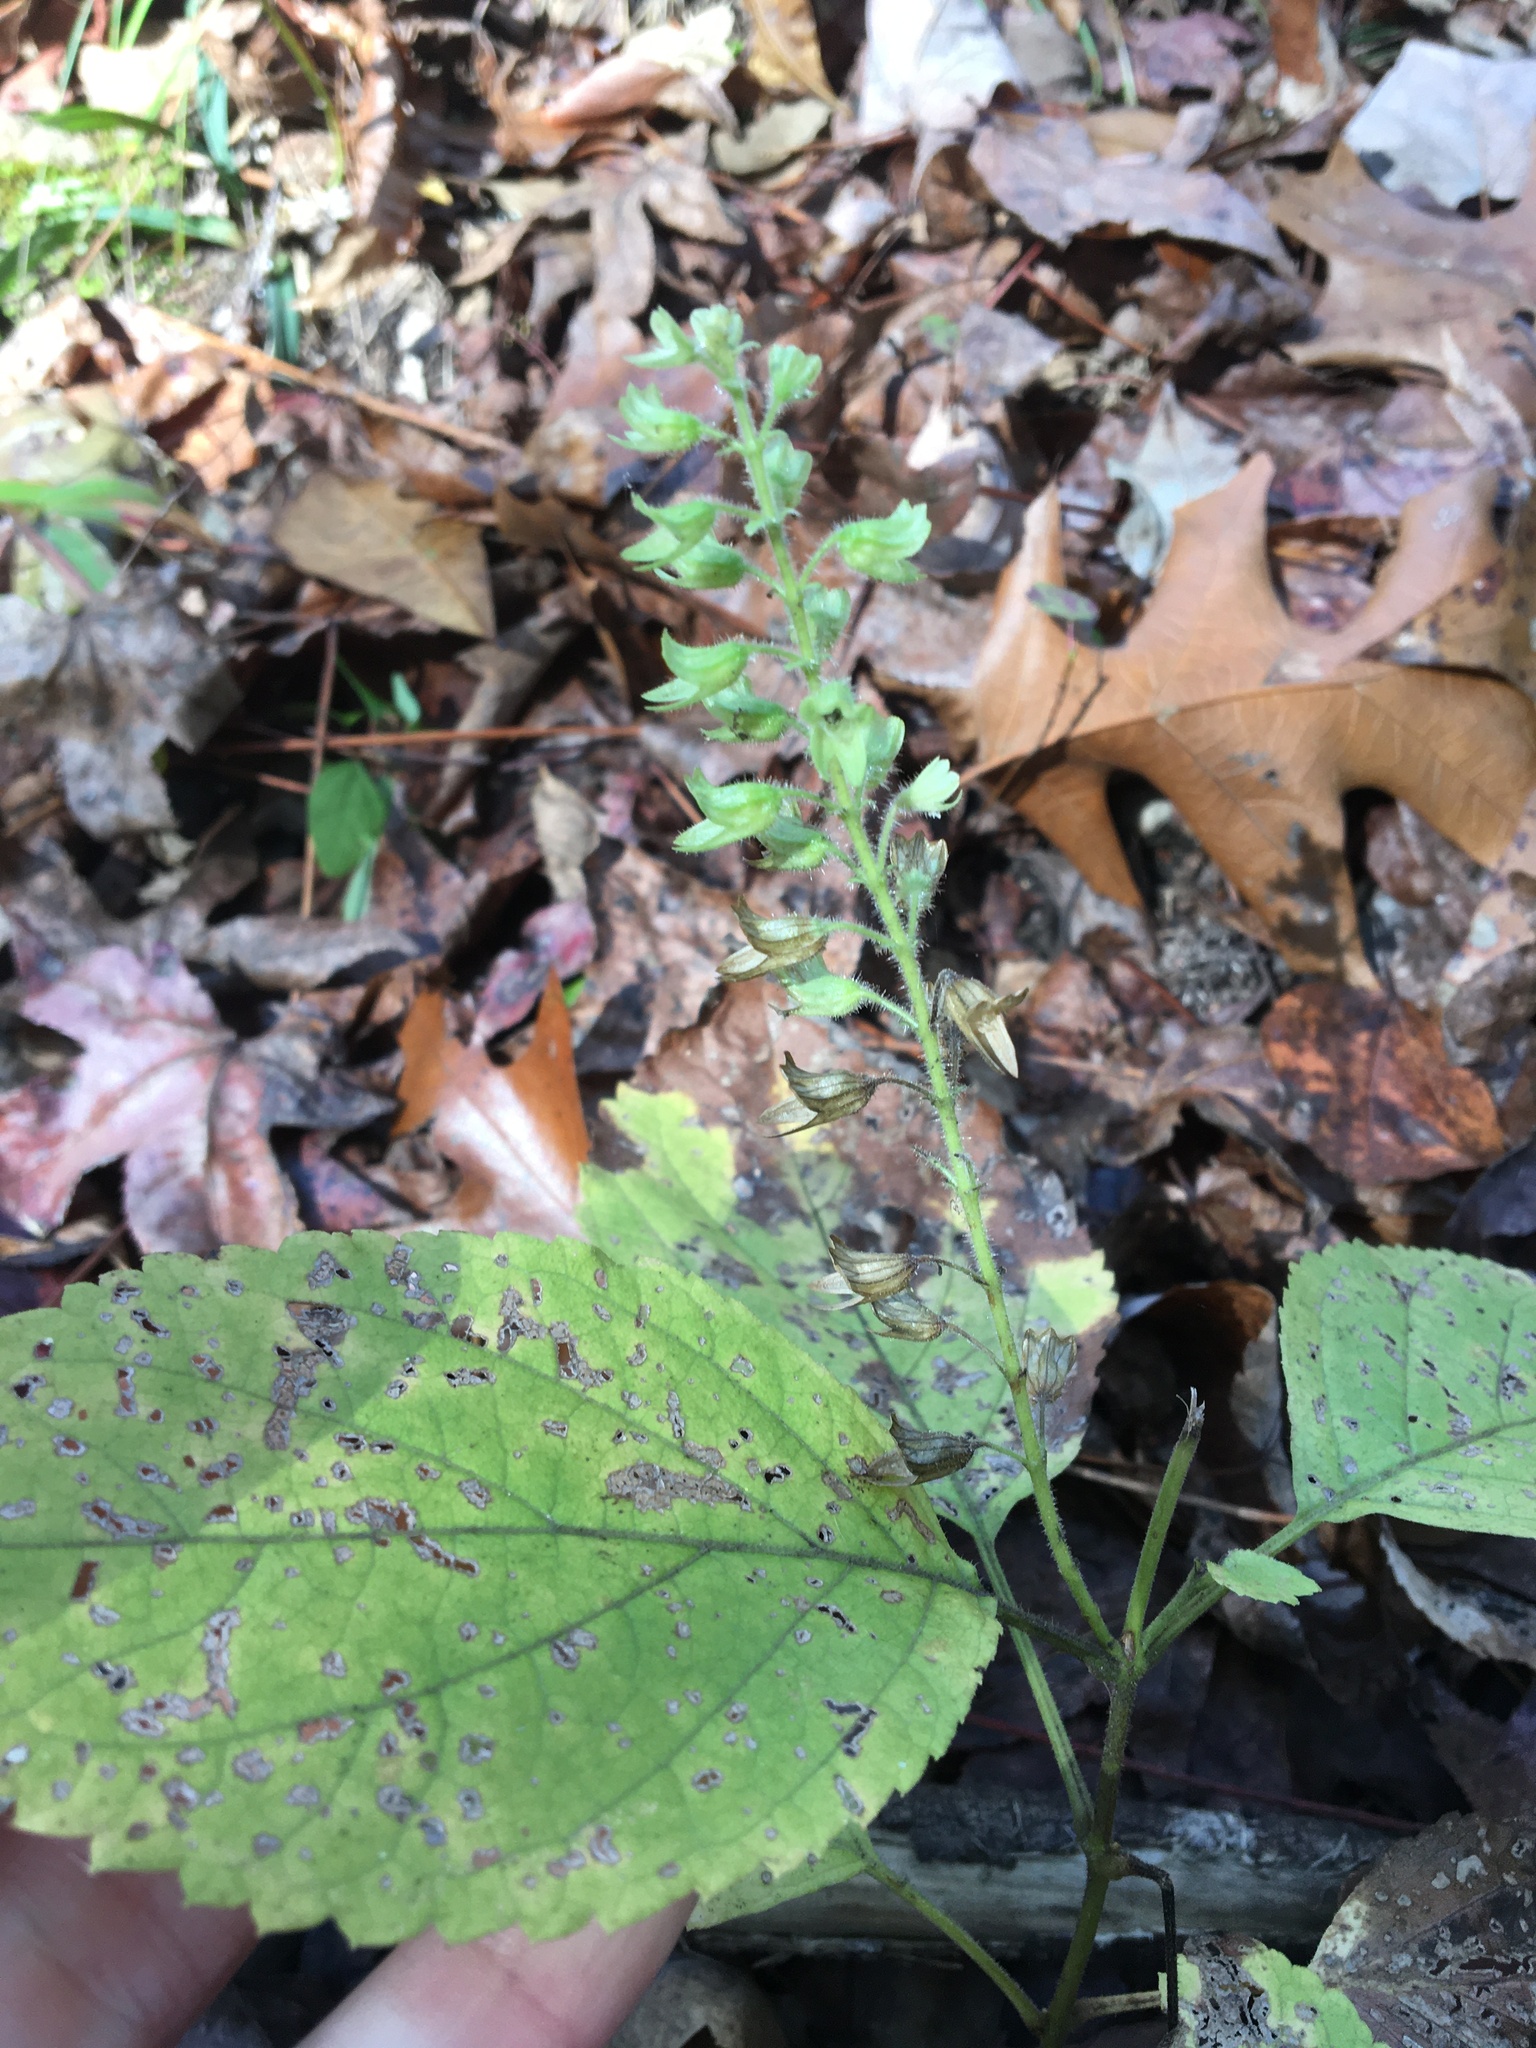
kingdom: Plantae
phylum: Tracheophyta
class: Magnoliopsida
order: Lamiales
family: Lamiaceae
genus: Collinsonia
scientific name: Collinsonia anisata
